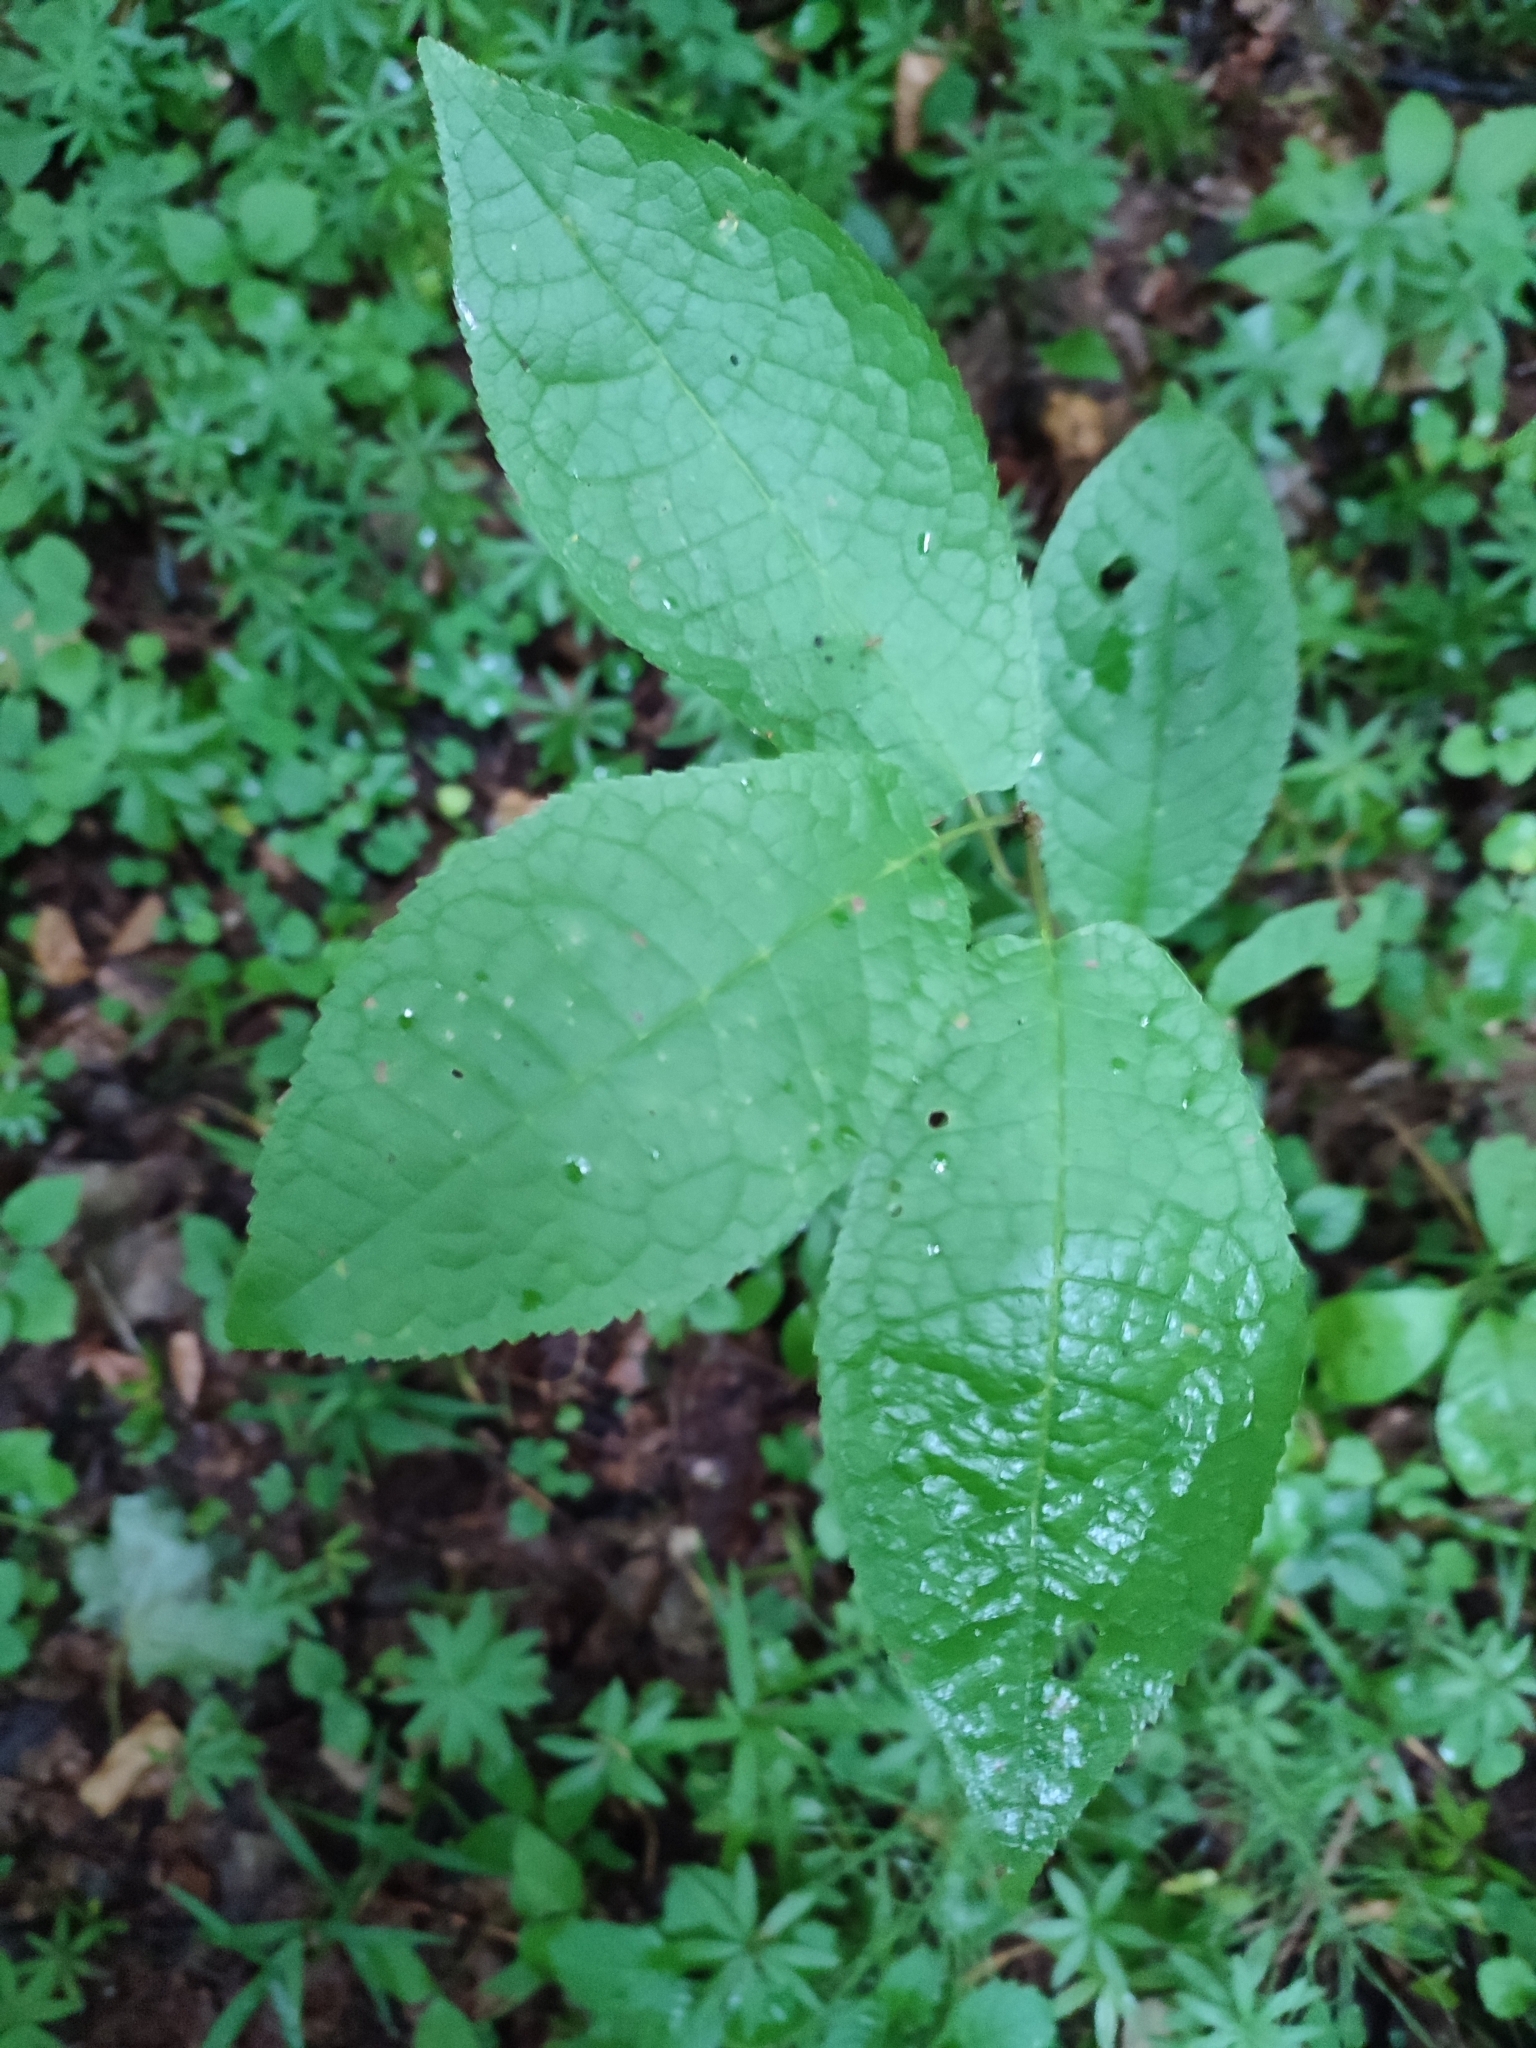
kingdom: Plantae
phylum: Tracheophyta
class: Magnoliopsida
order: Rosales
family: Rosaceae
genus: Prunus
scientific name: Prunus padus
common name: Bird cherry
